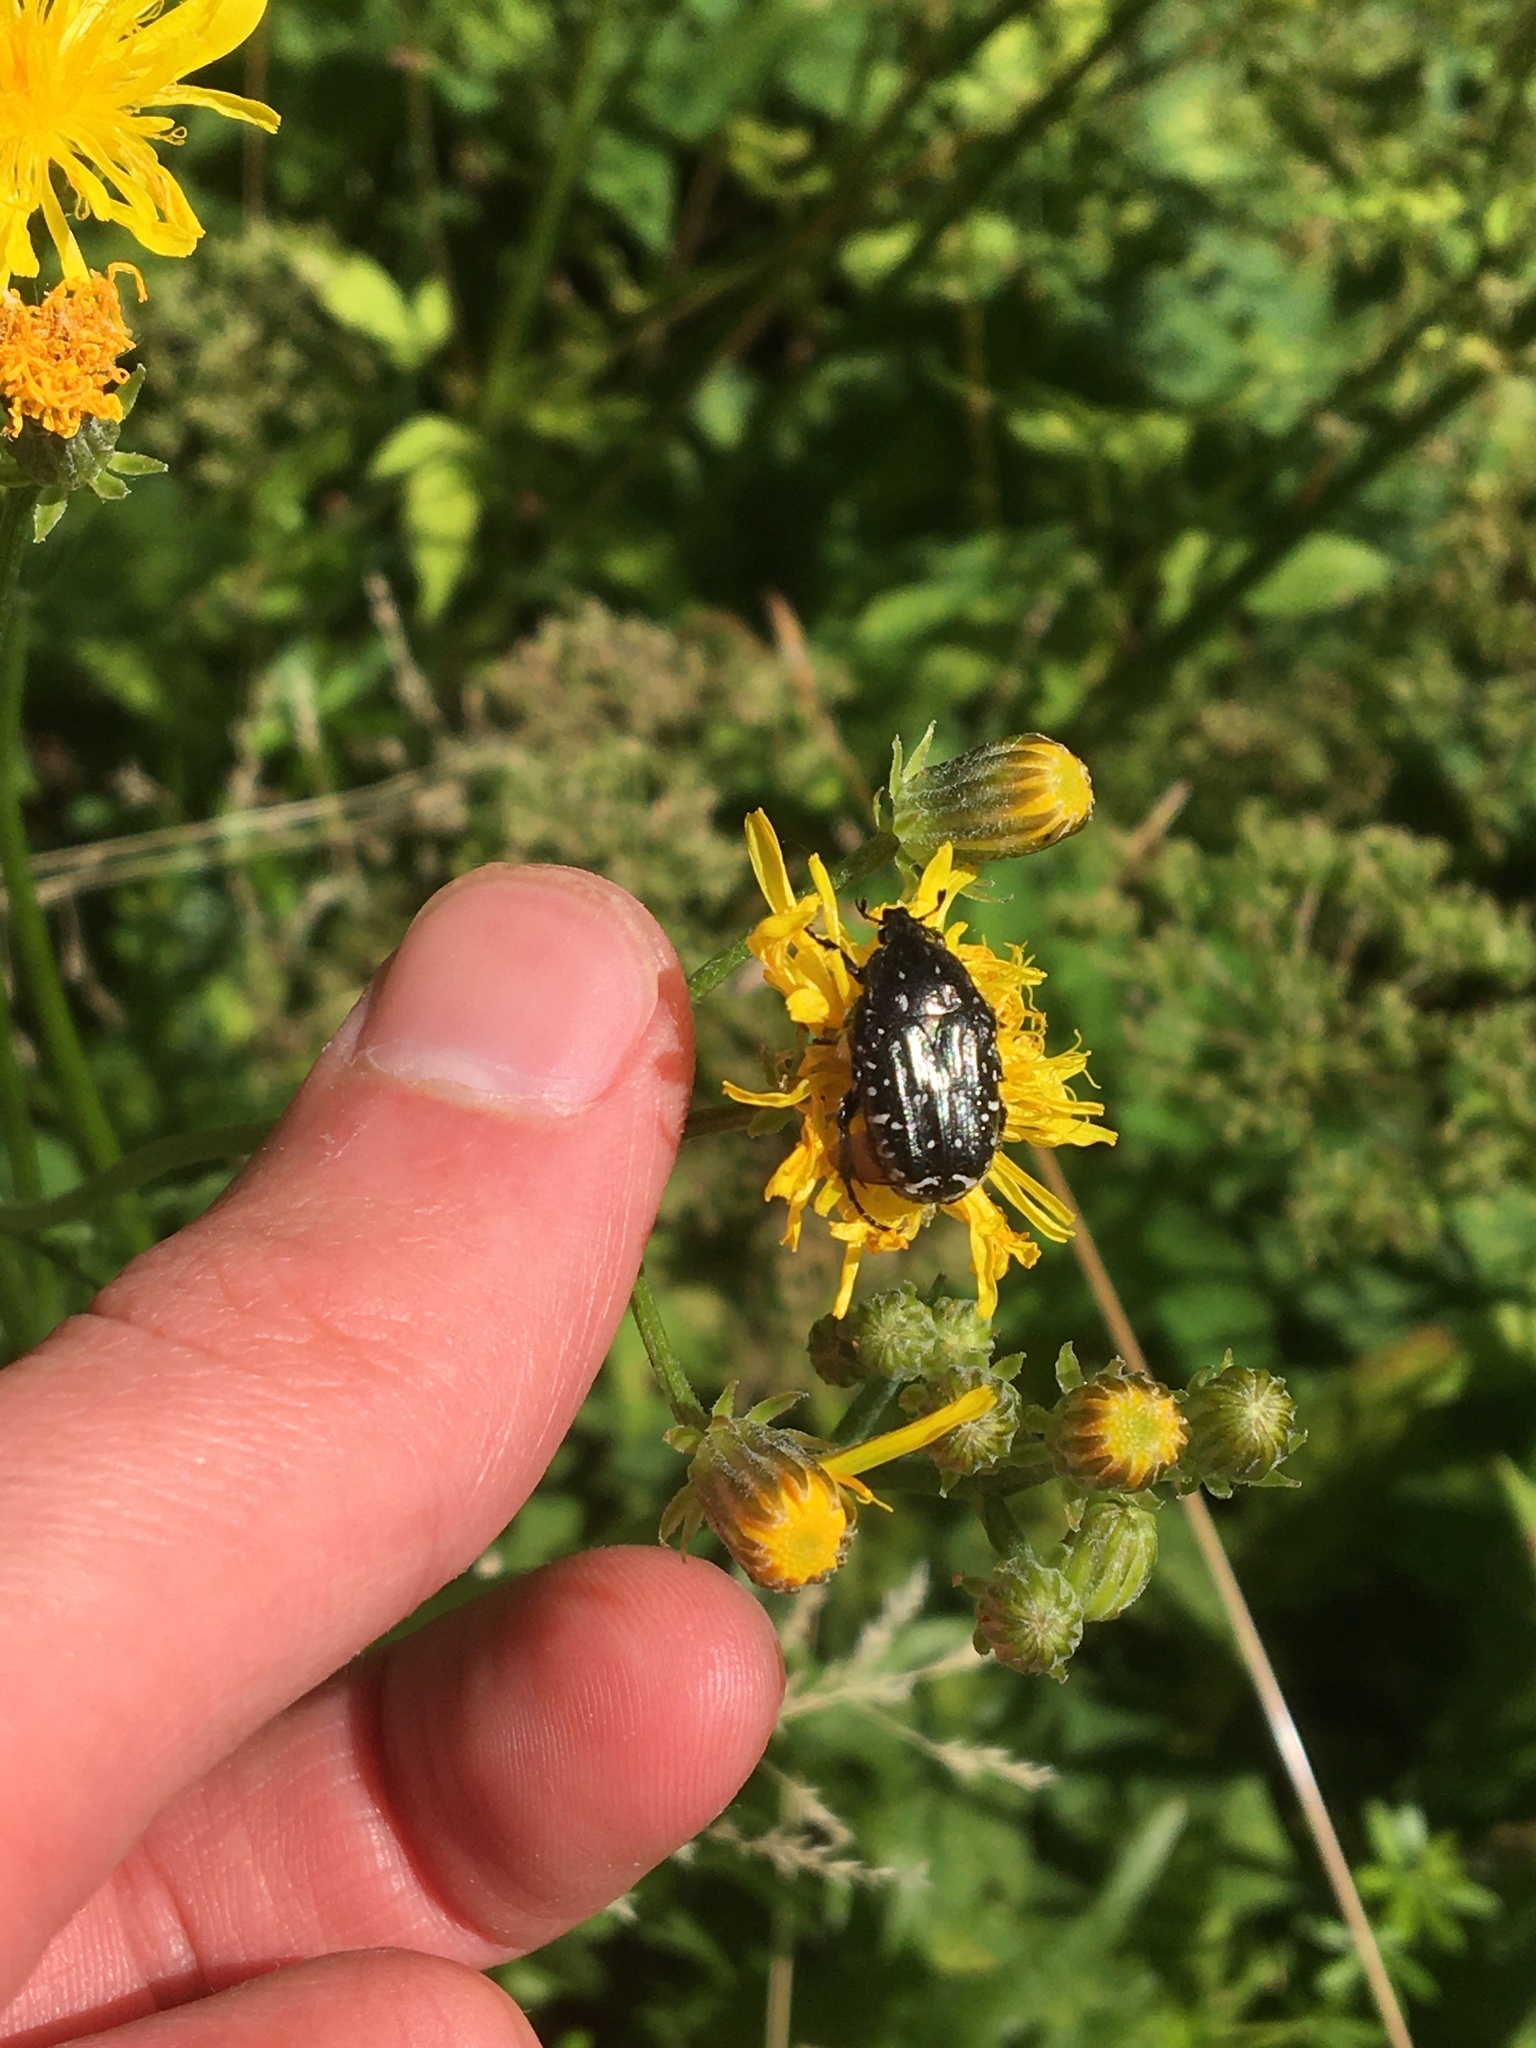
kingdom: Animalia
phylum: Arthropoda
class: Insecta
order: Coleoptera
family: Scarabaeidae
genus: Oxythyrea
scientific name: Oxythyrea funesta
